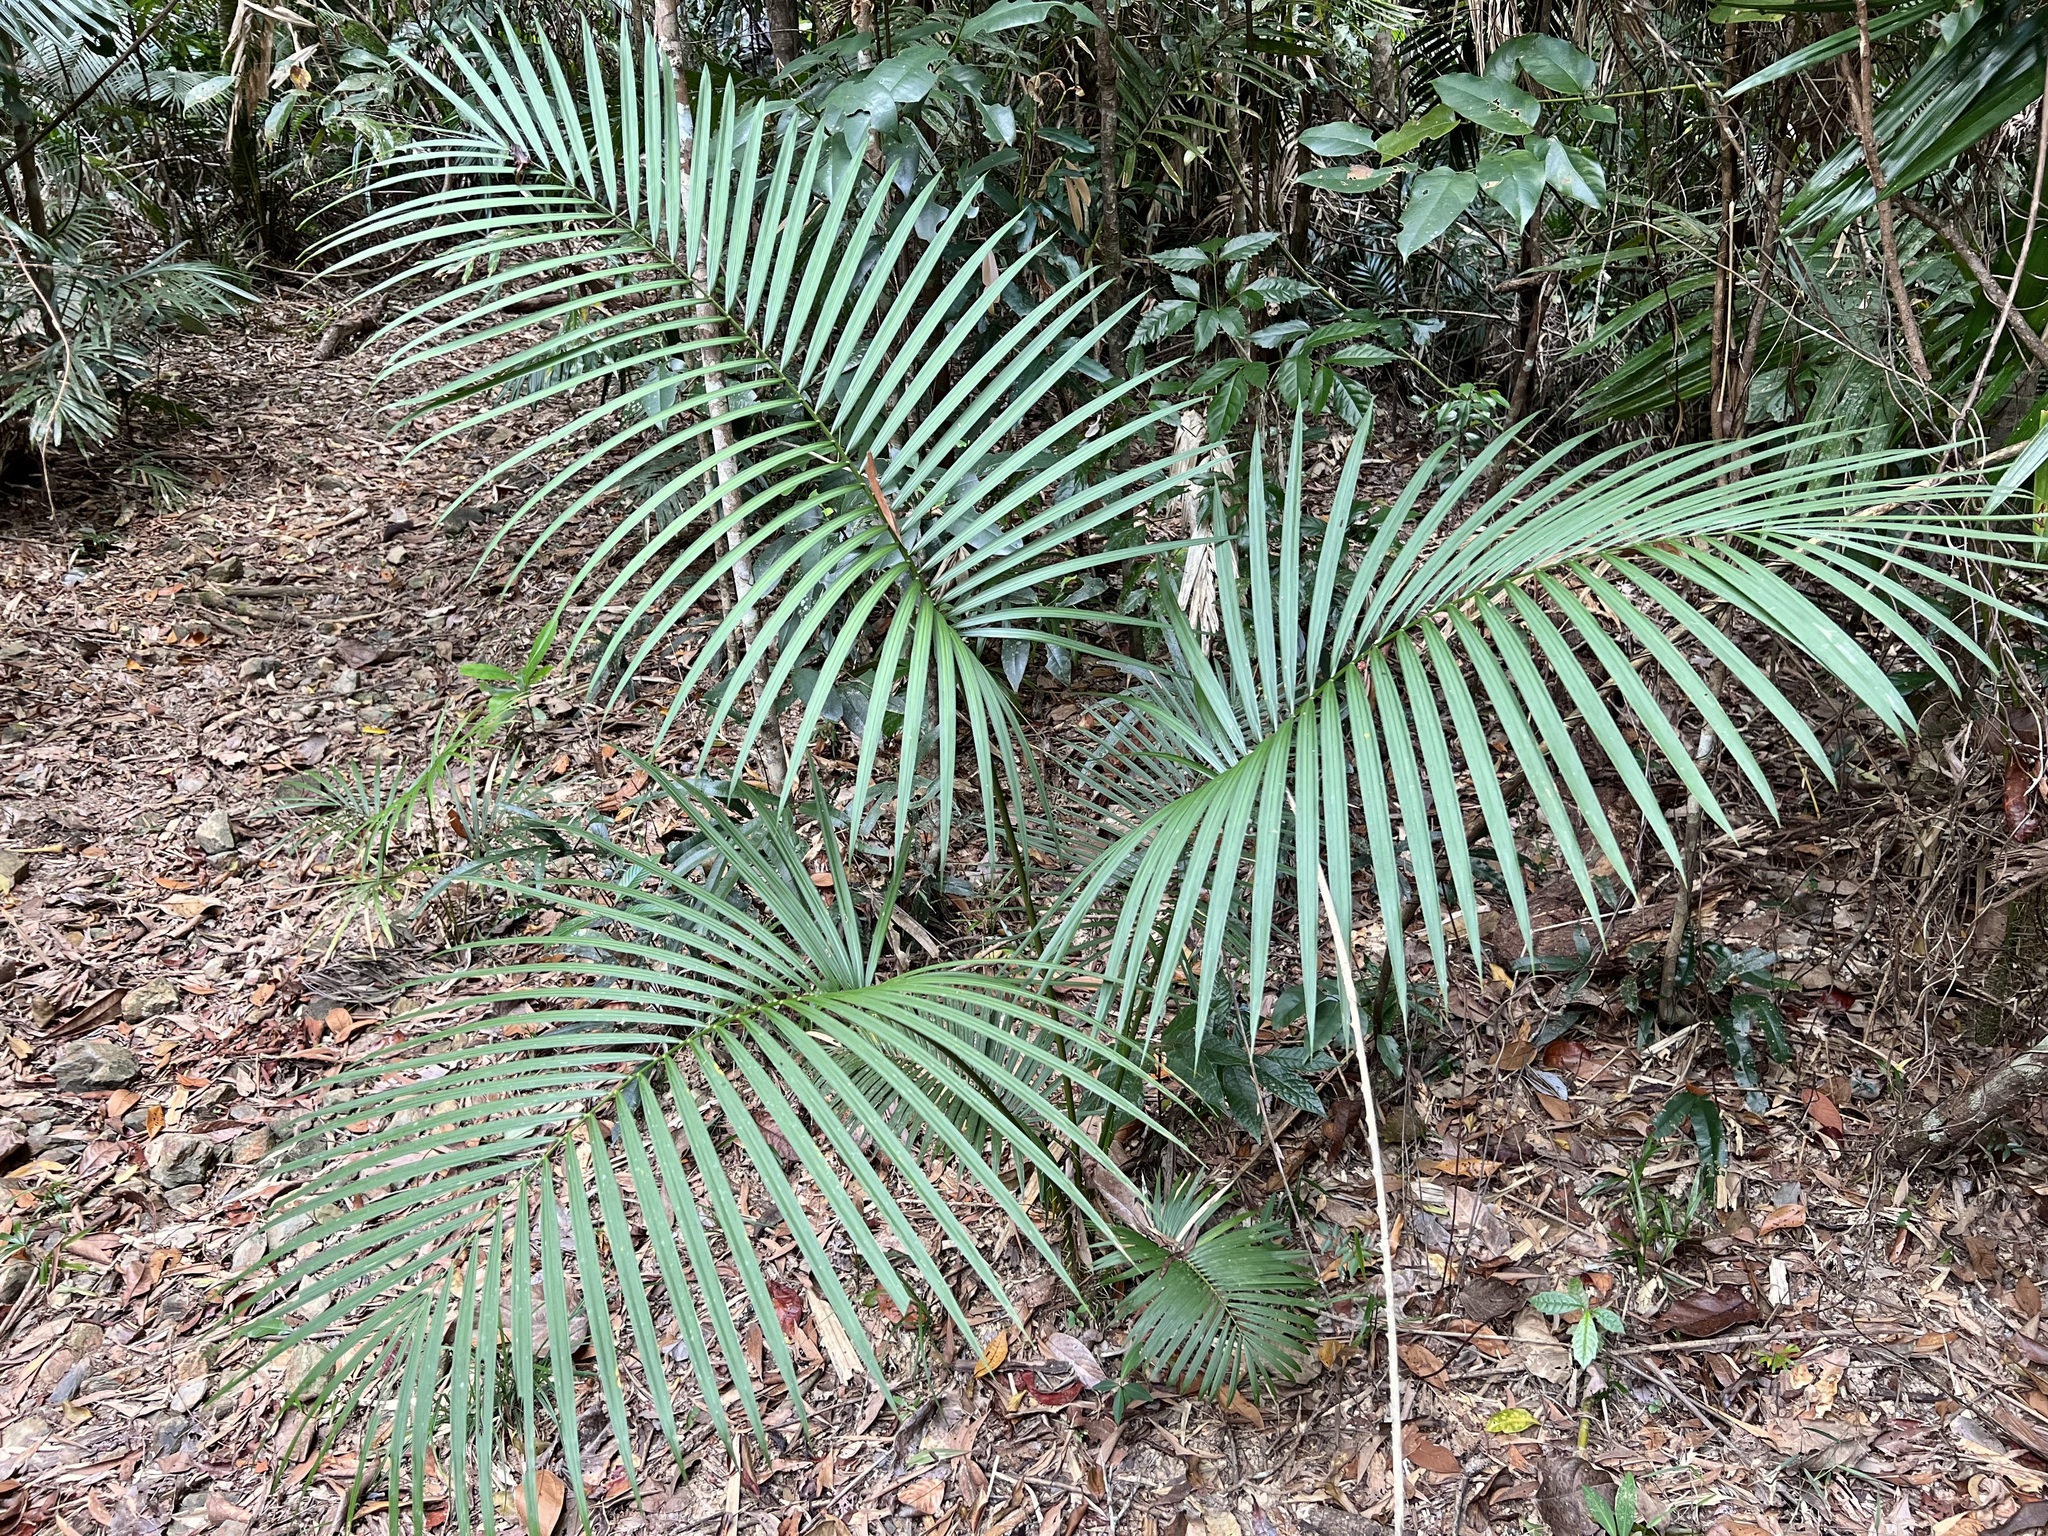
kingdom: Plantae
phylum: Tracheophyta
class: Liliopsida
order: Arecales
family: Arecaceae
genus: Calamus
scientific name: Calamus australis
